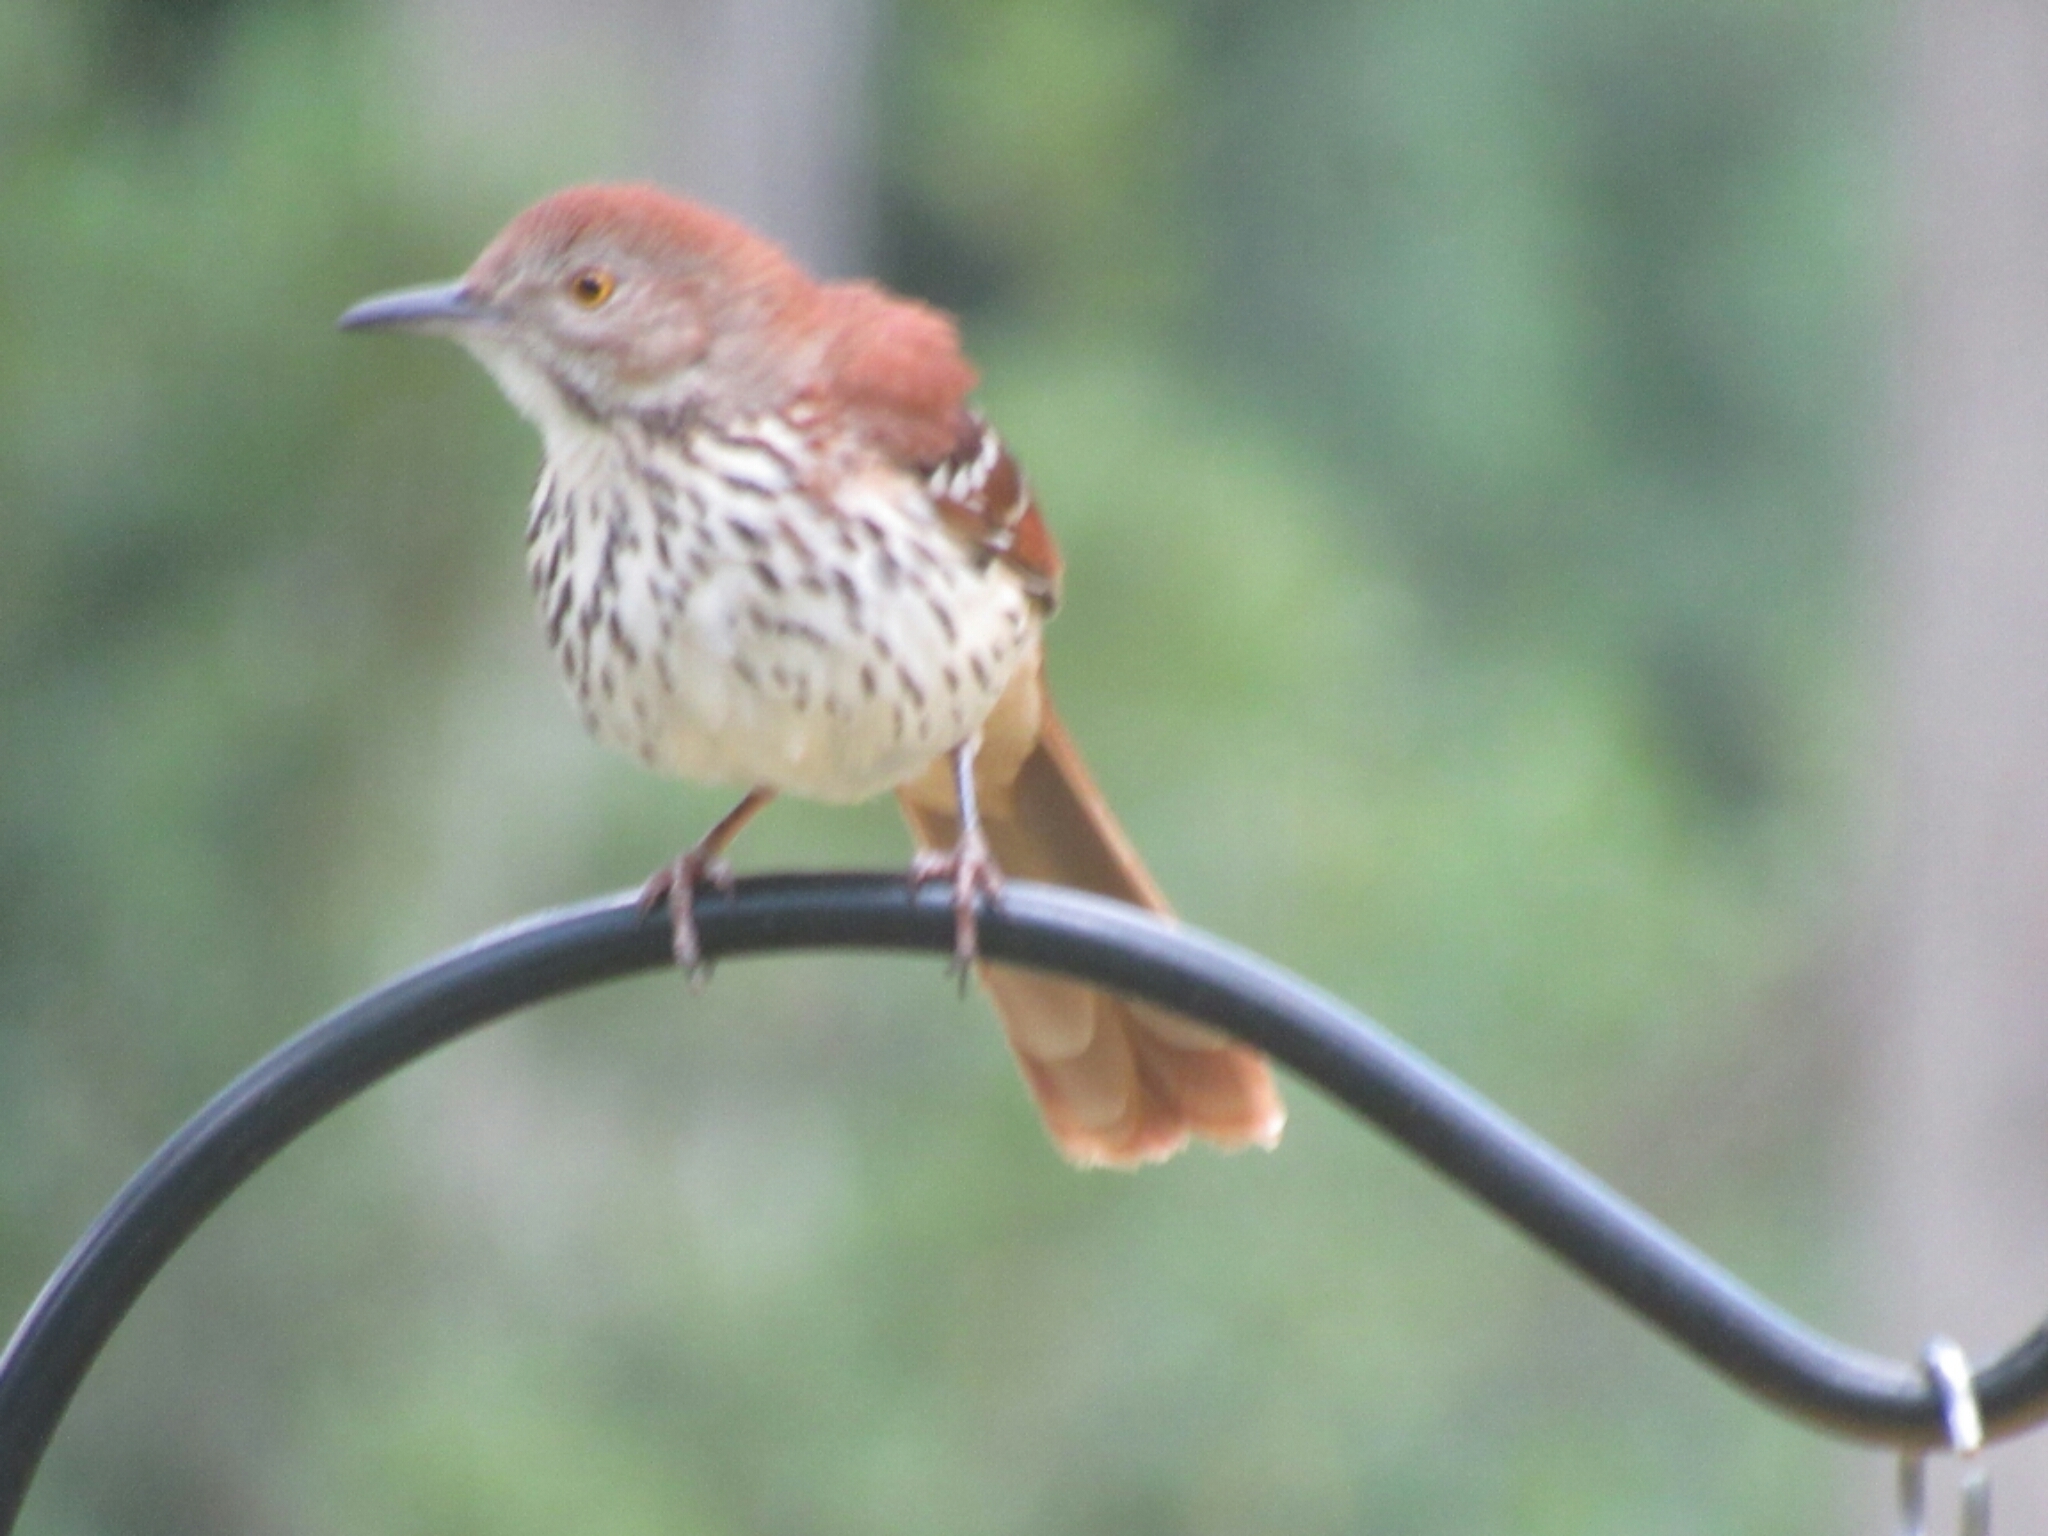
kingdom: Animalia
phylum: Chordata
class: Aves
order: Passeriformes
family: Mimidae
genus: Toxostoma
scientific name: Toxostoma rufum
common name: Brown thrasher
